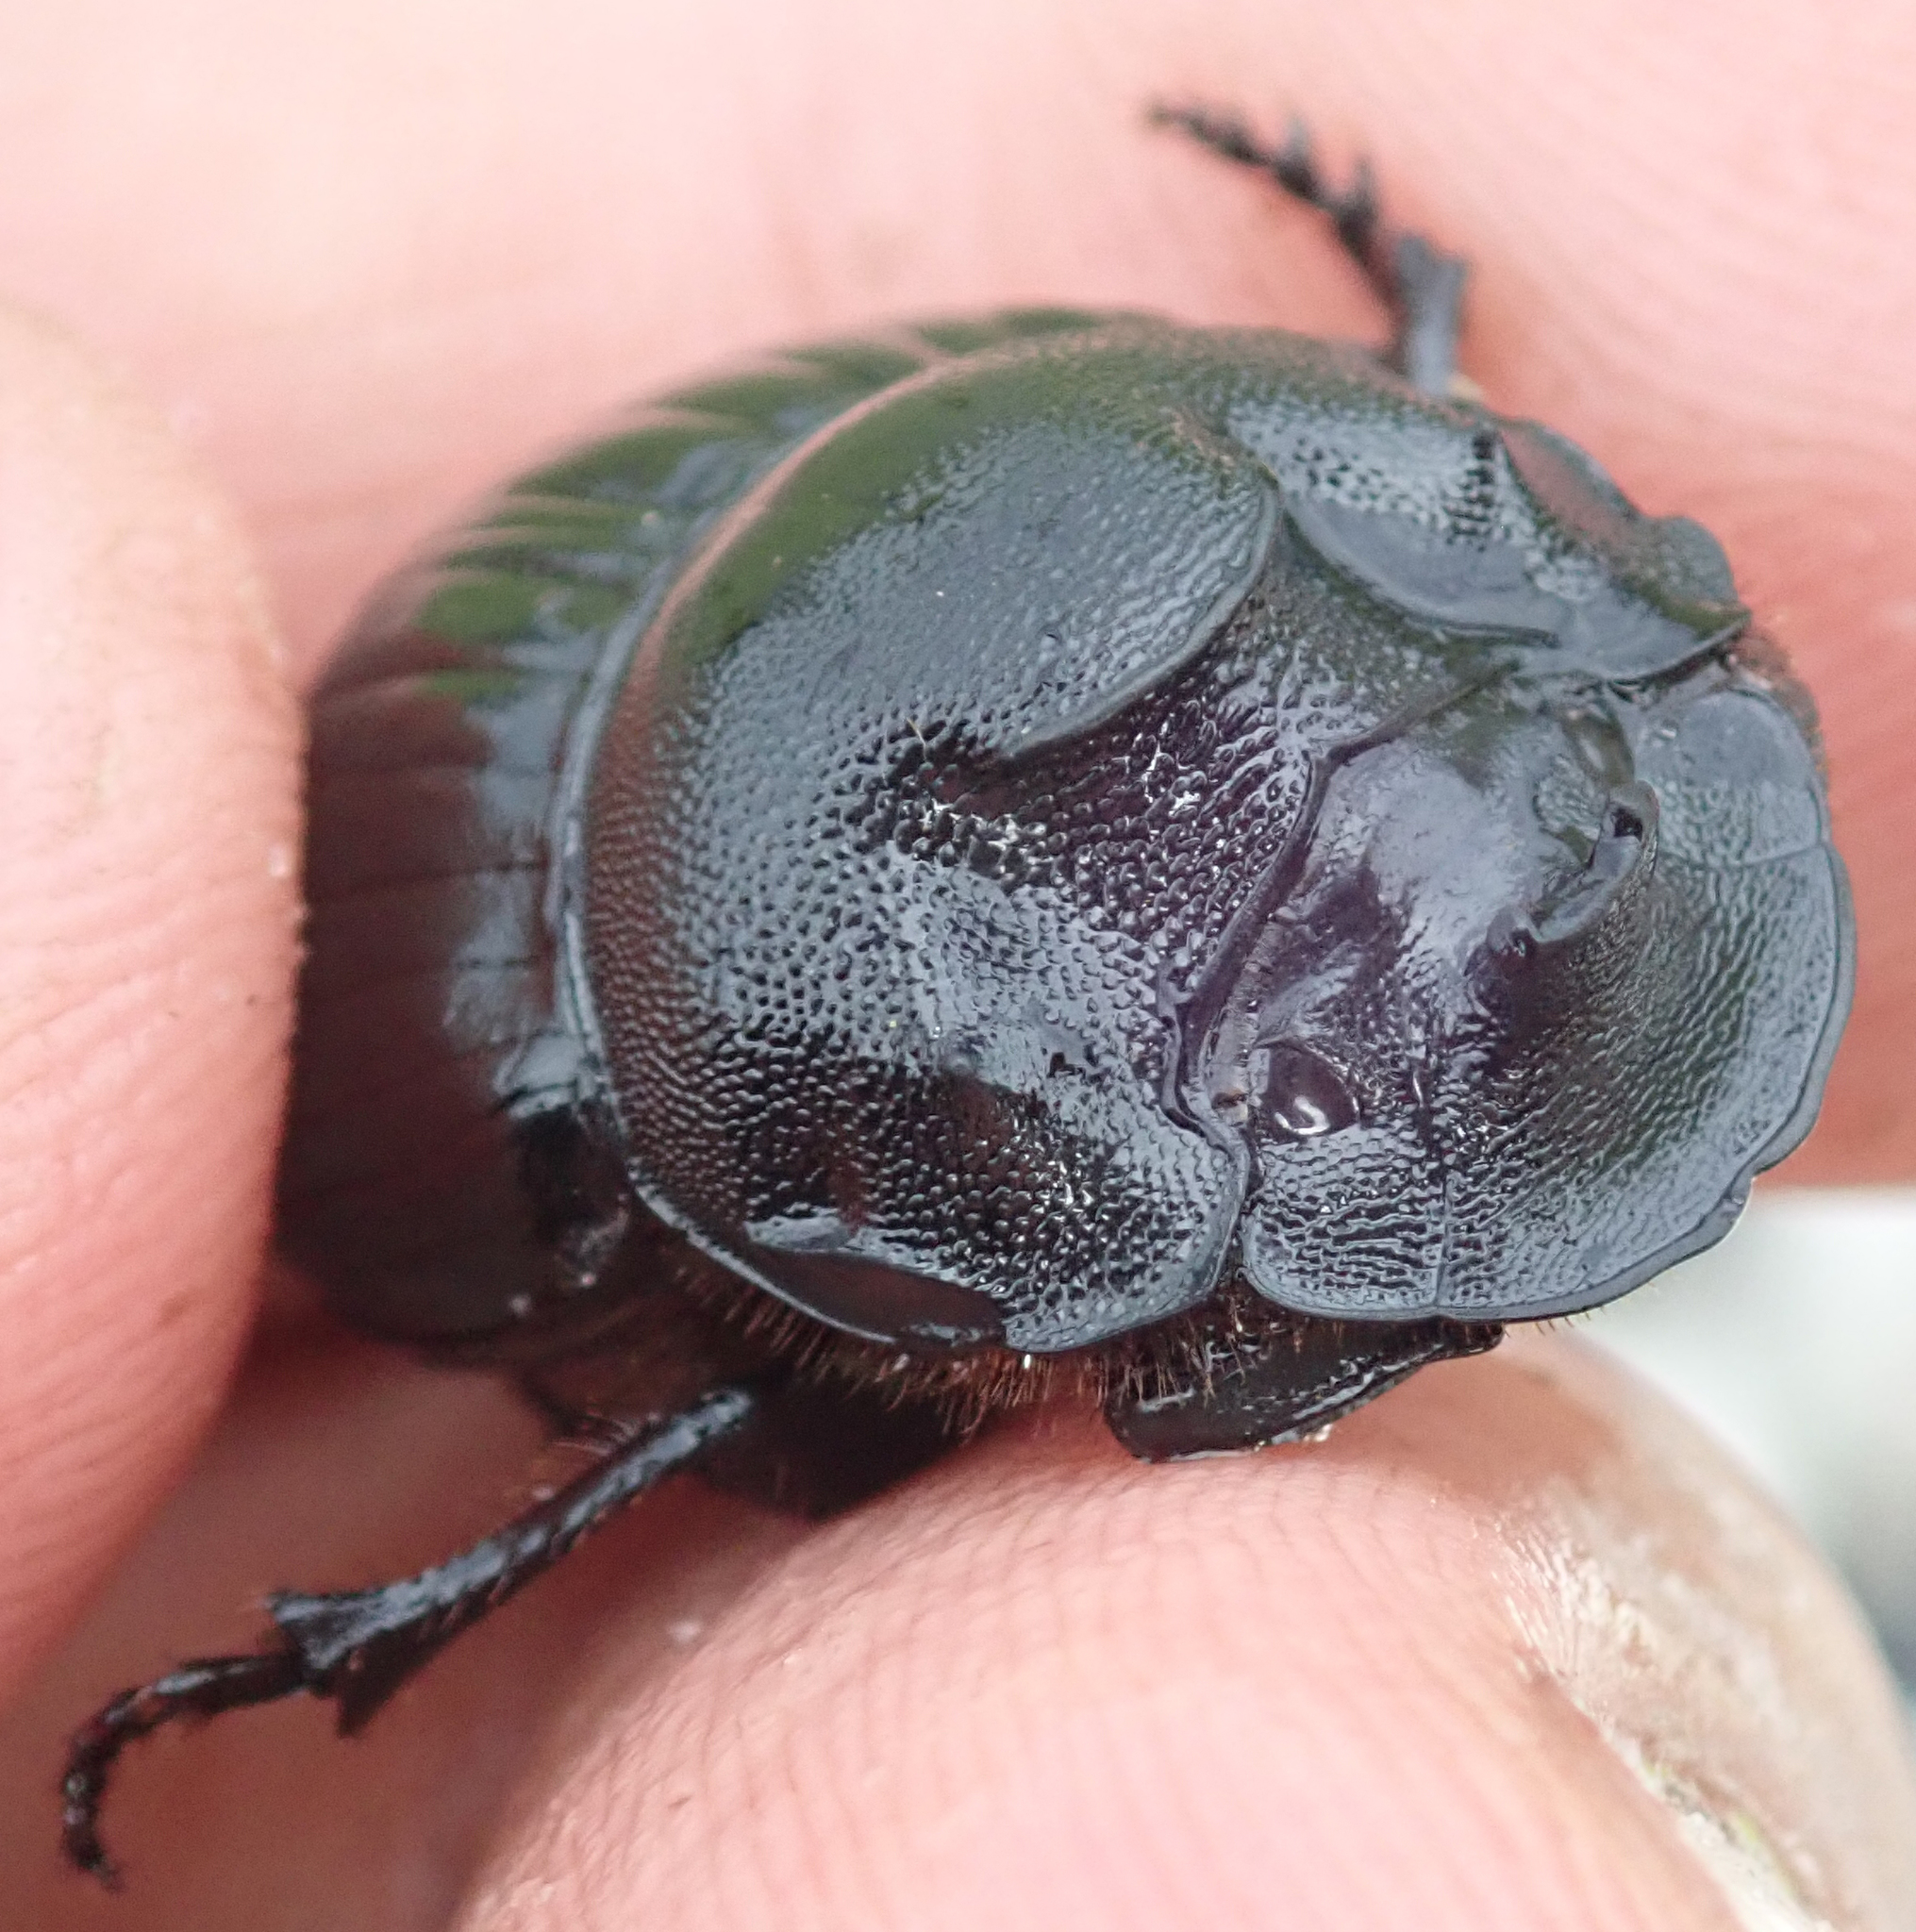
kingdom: Animalia
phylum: Arthropoda
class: Insecta
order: Coleoptera
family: Scarabaeidae
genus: Copris
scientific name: Copris elphenor
